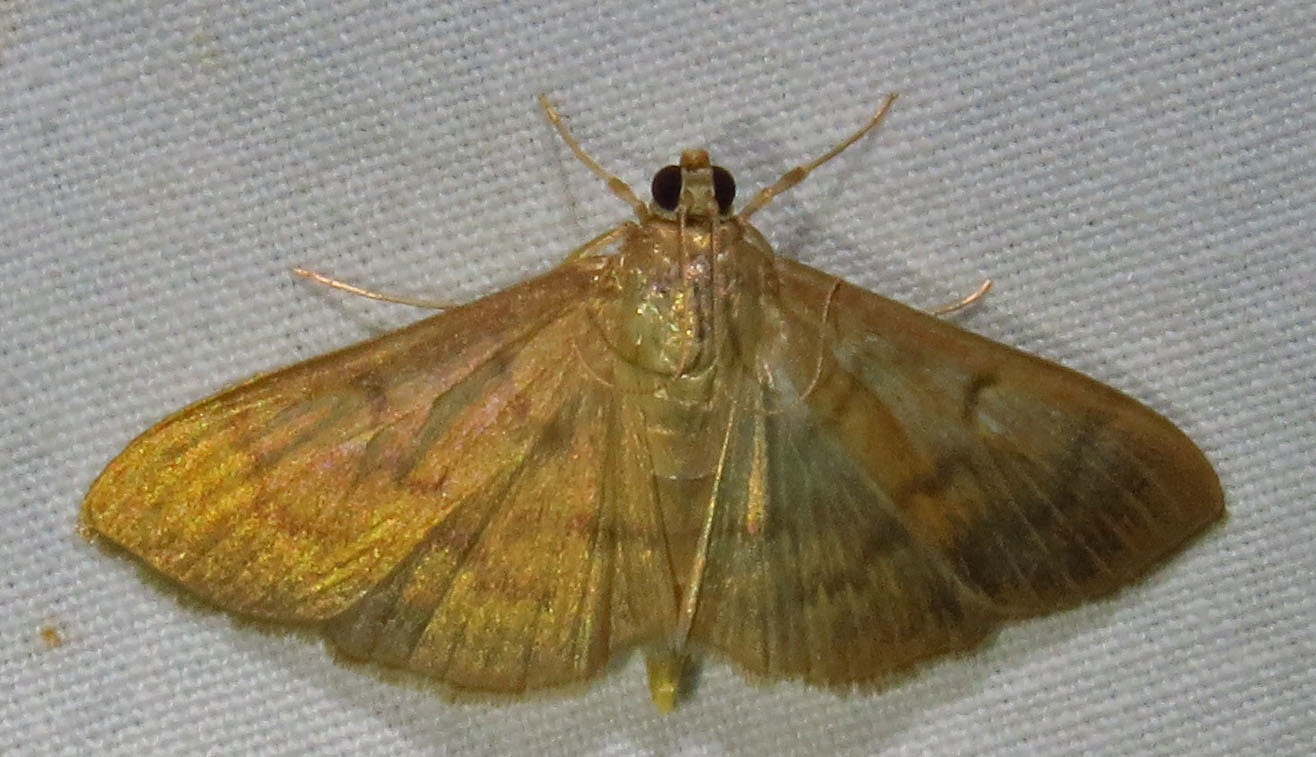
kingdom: Animalia
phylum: Arthropoda
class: Insecta
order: Lepidoptera
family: Crambidae
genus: Pleuroptya
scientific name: Pleuroptya silicalis
